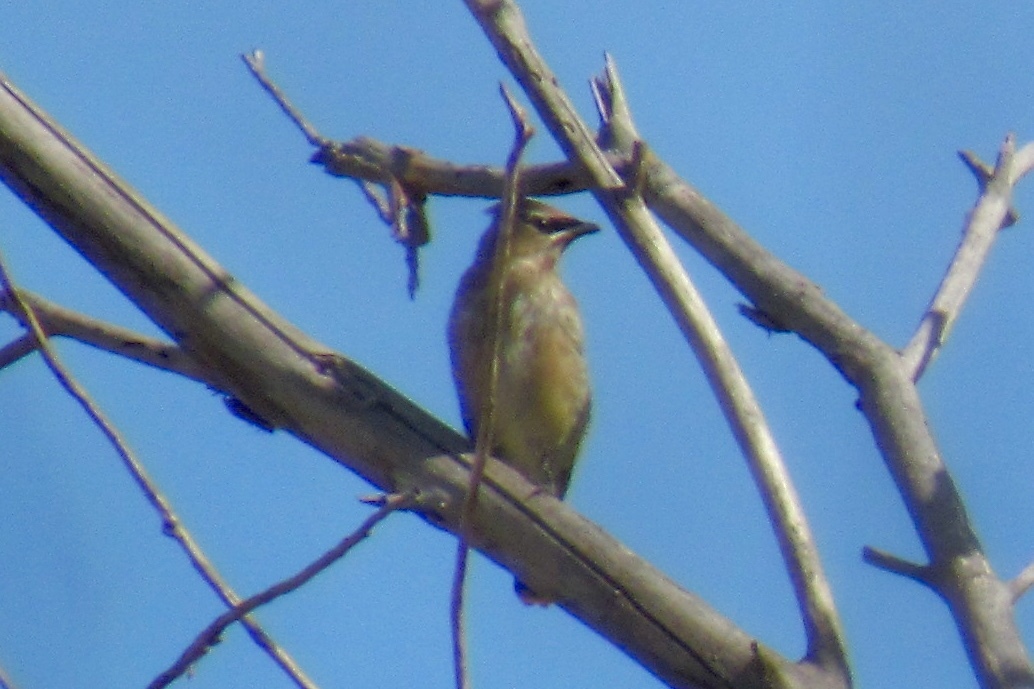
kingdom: Animalia
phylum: Chordata
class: Aves
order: Passeriformes
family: Bombycillidae
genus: Bombycilla
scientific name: Bombycilla cedrorum
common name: Cedar waxwing
